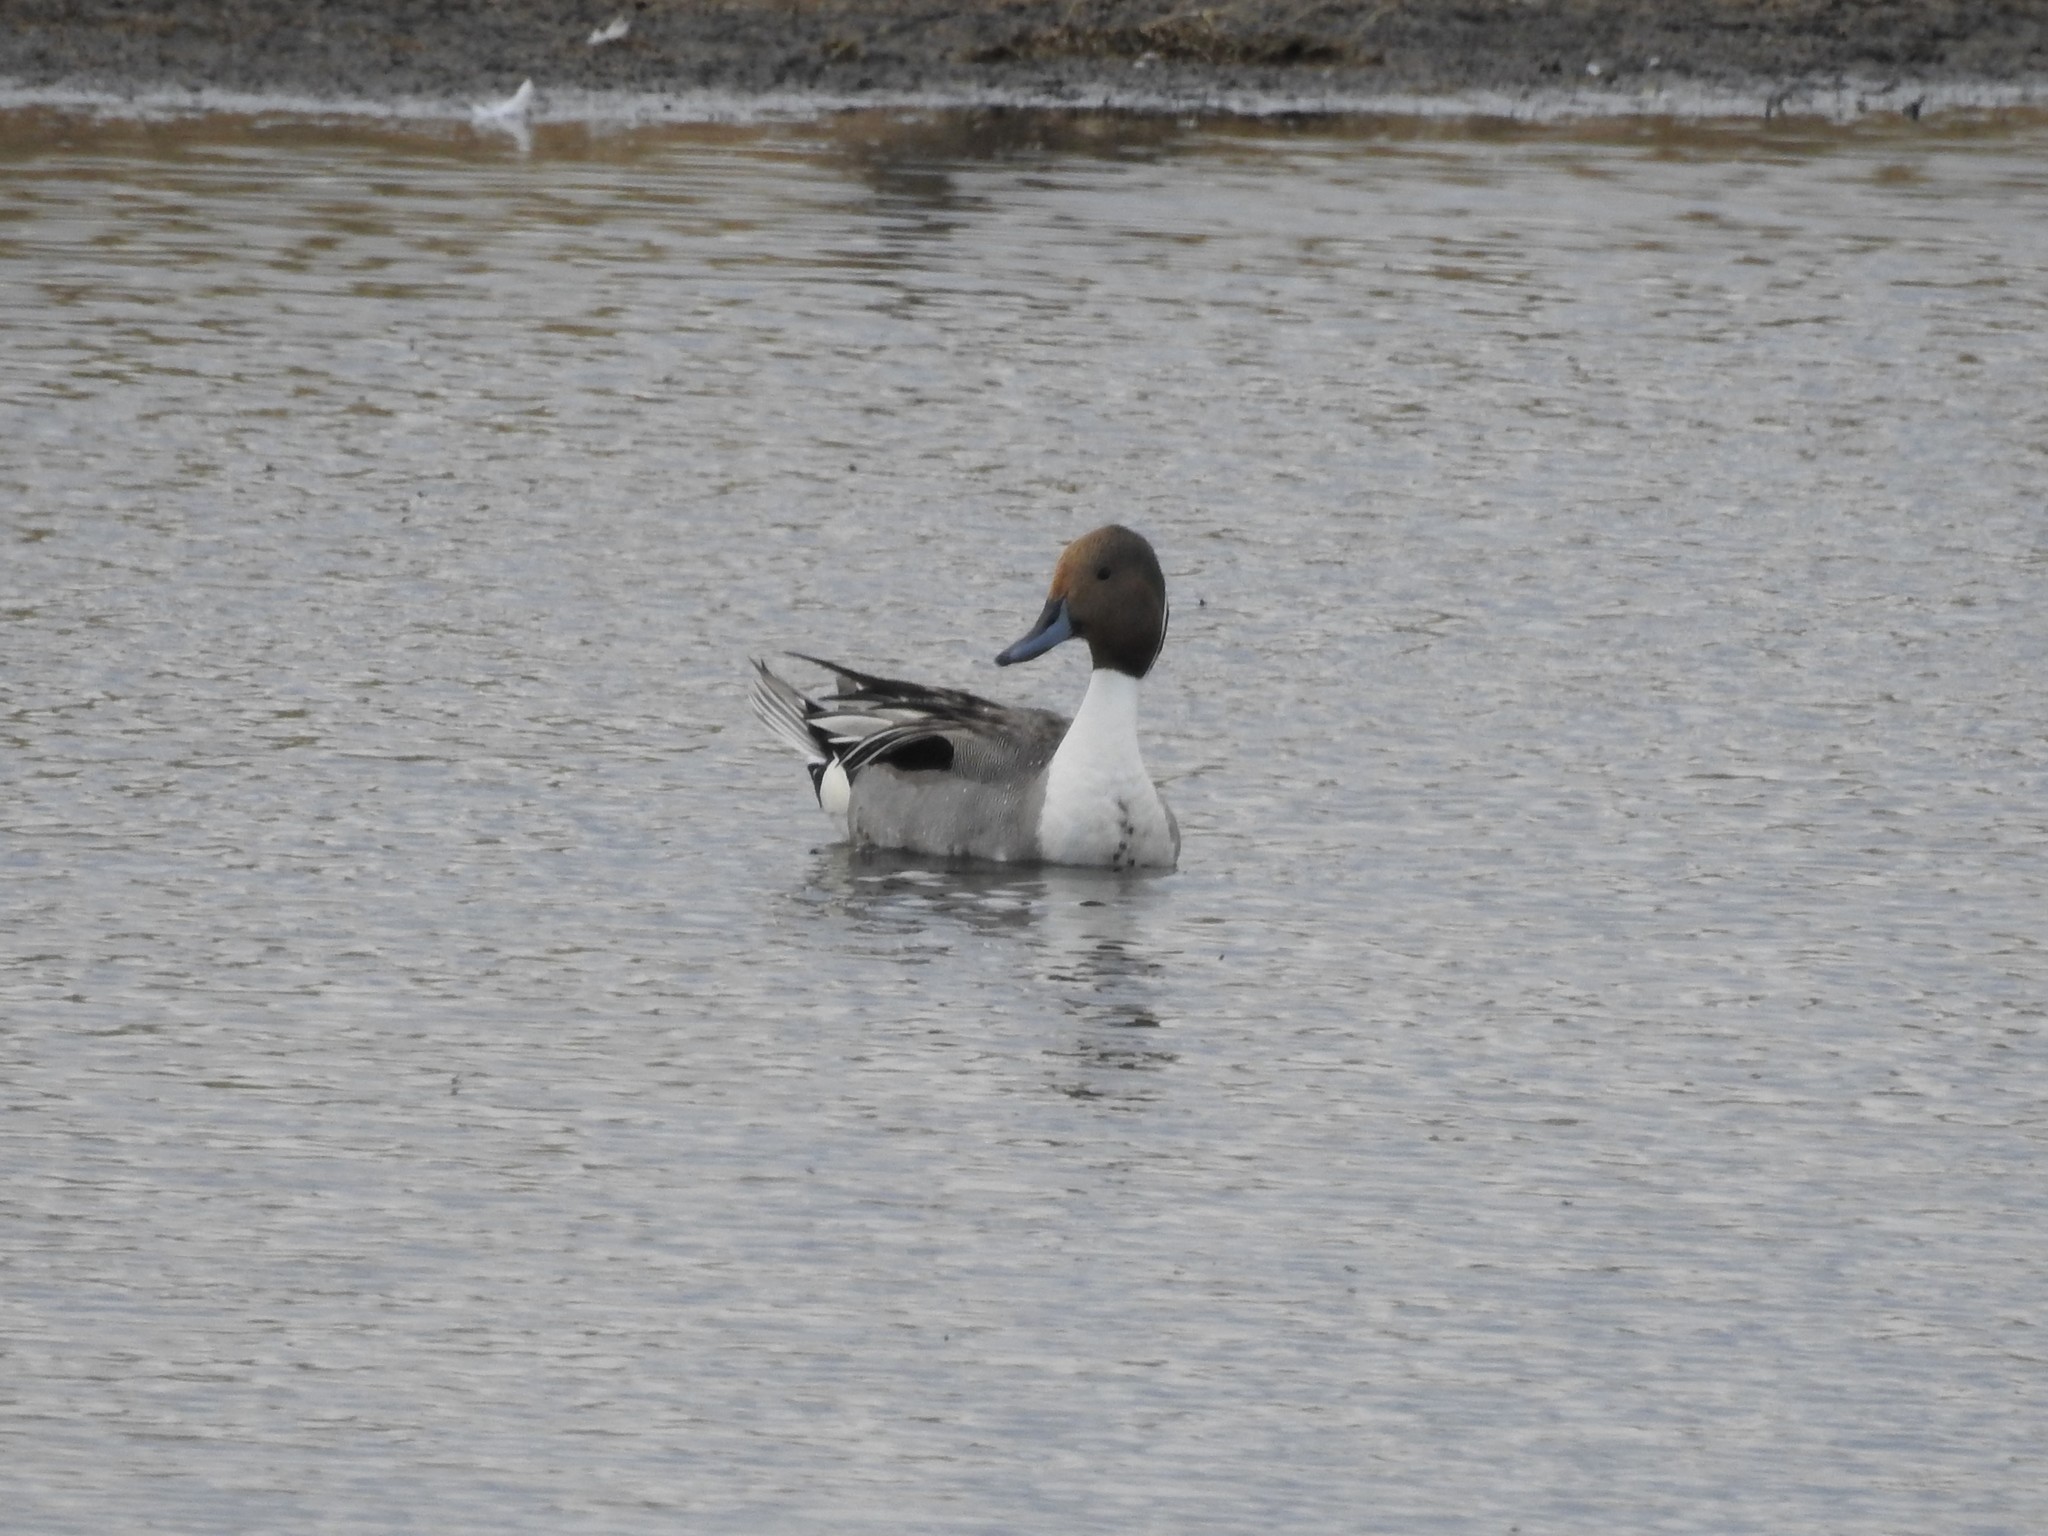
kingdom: Animalia
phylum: Chordata
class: Aves
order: Anseriformes
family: Anatidae
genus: Anas
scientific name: Anas acuta
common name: Northern pintail
